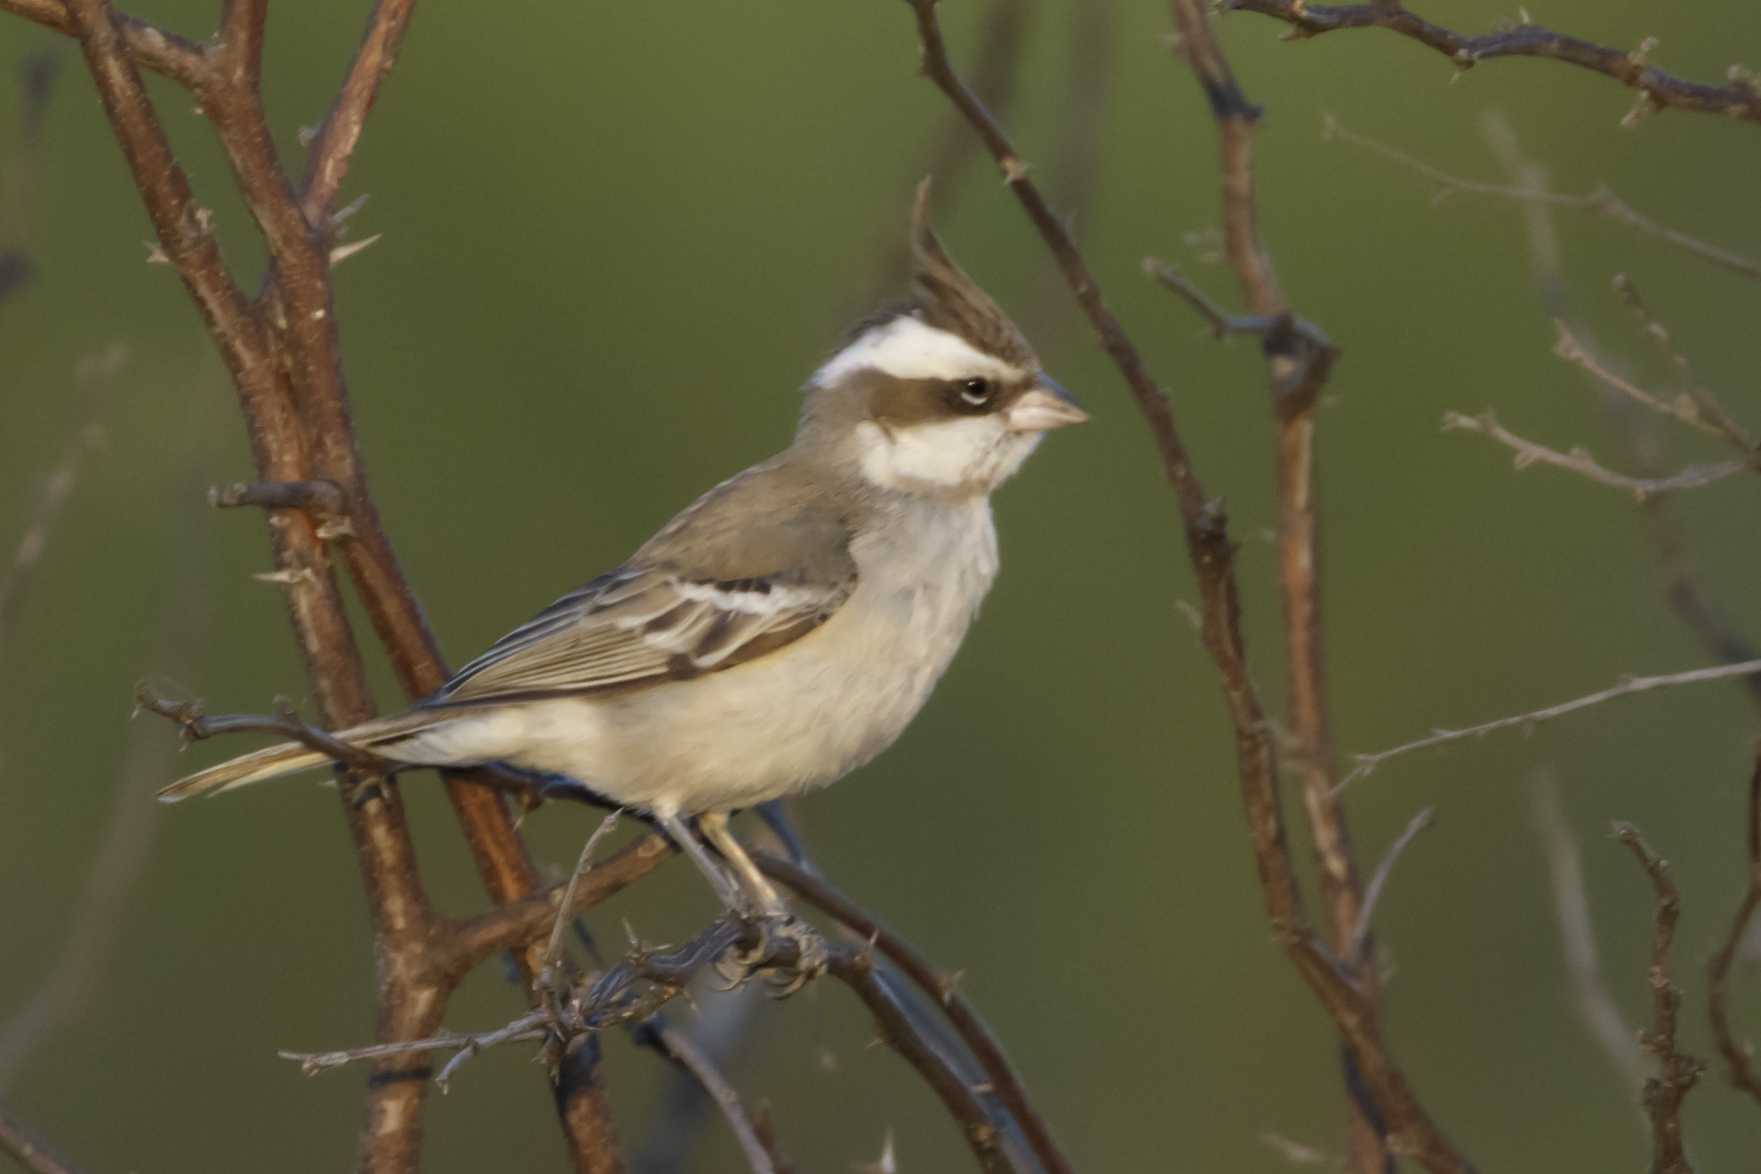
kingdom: Animalia
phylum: Chordata
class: Aves
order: Passeriformes
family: Thraupidae
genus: Lophospingus
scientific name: Lophospingus pusillus
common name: Black-crested finch
